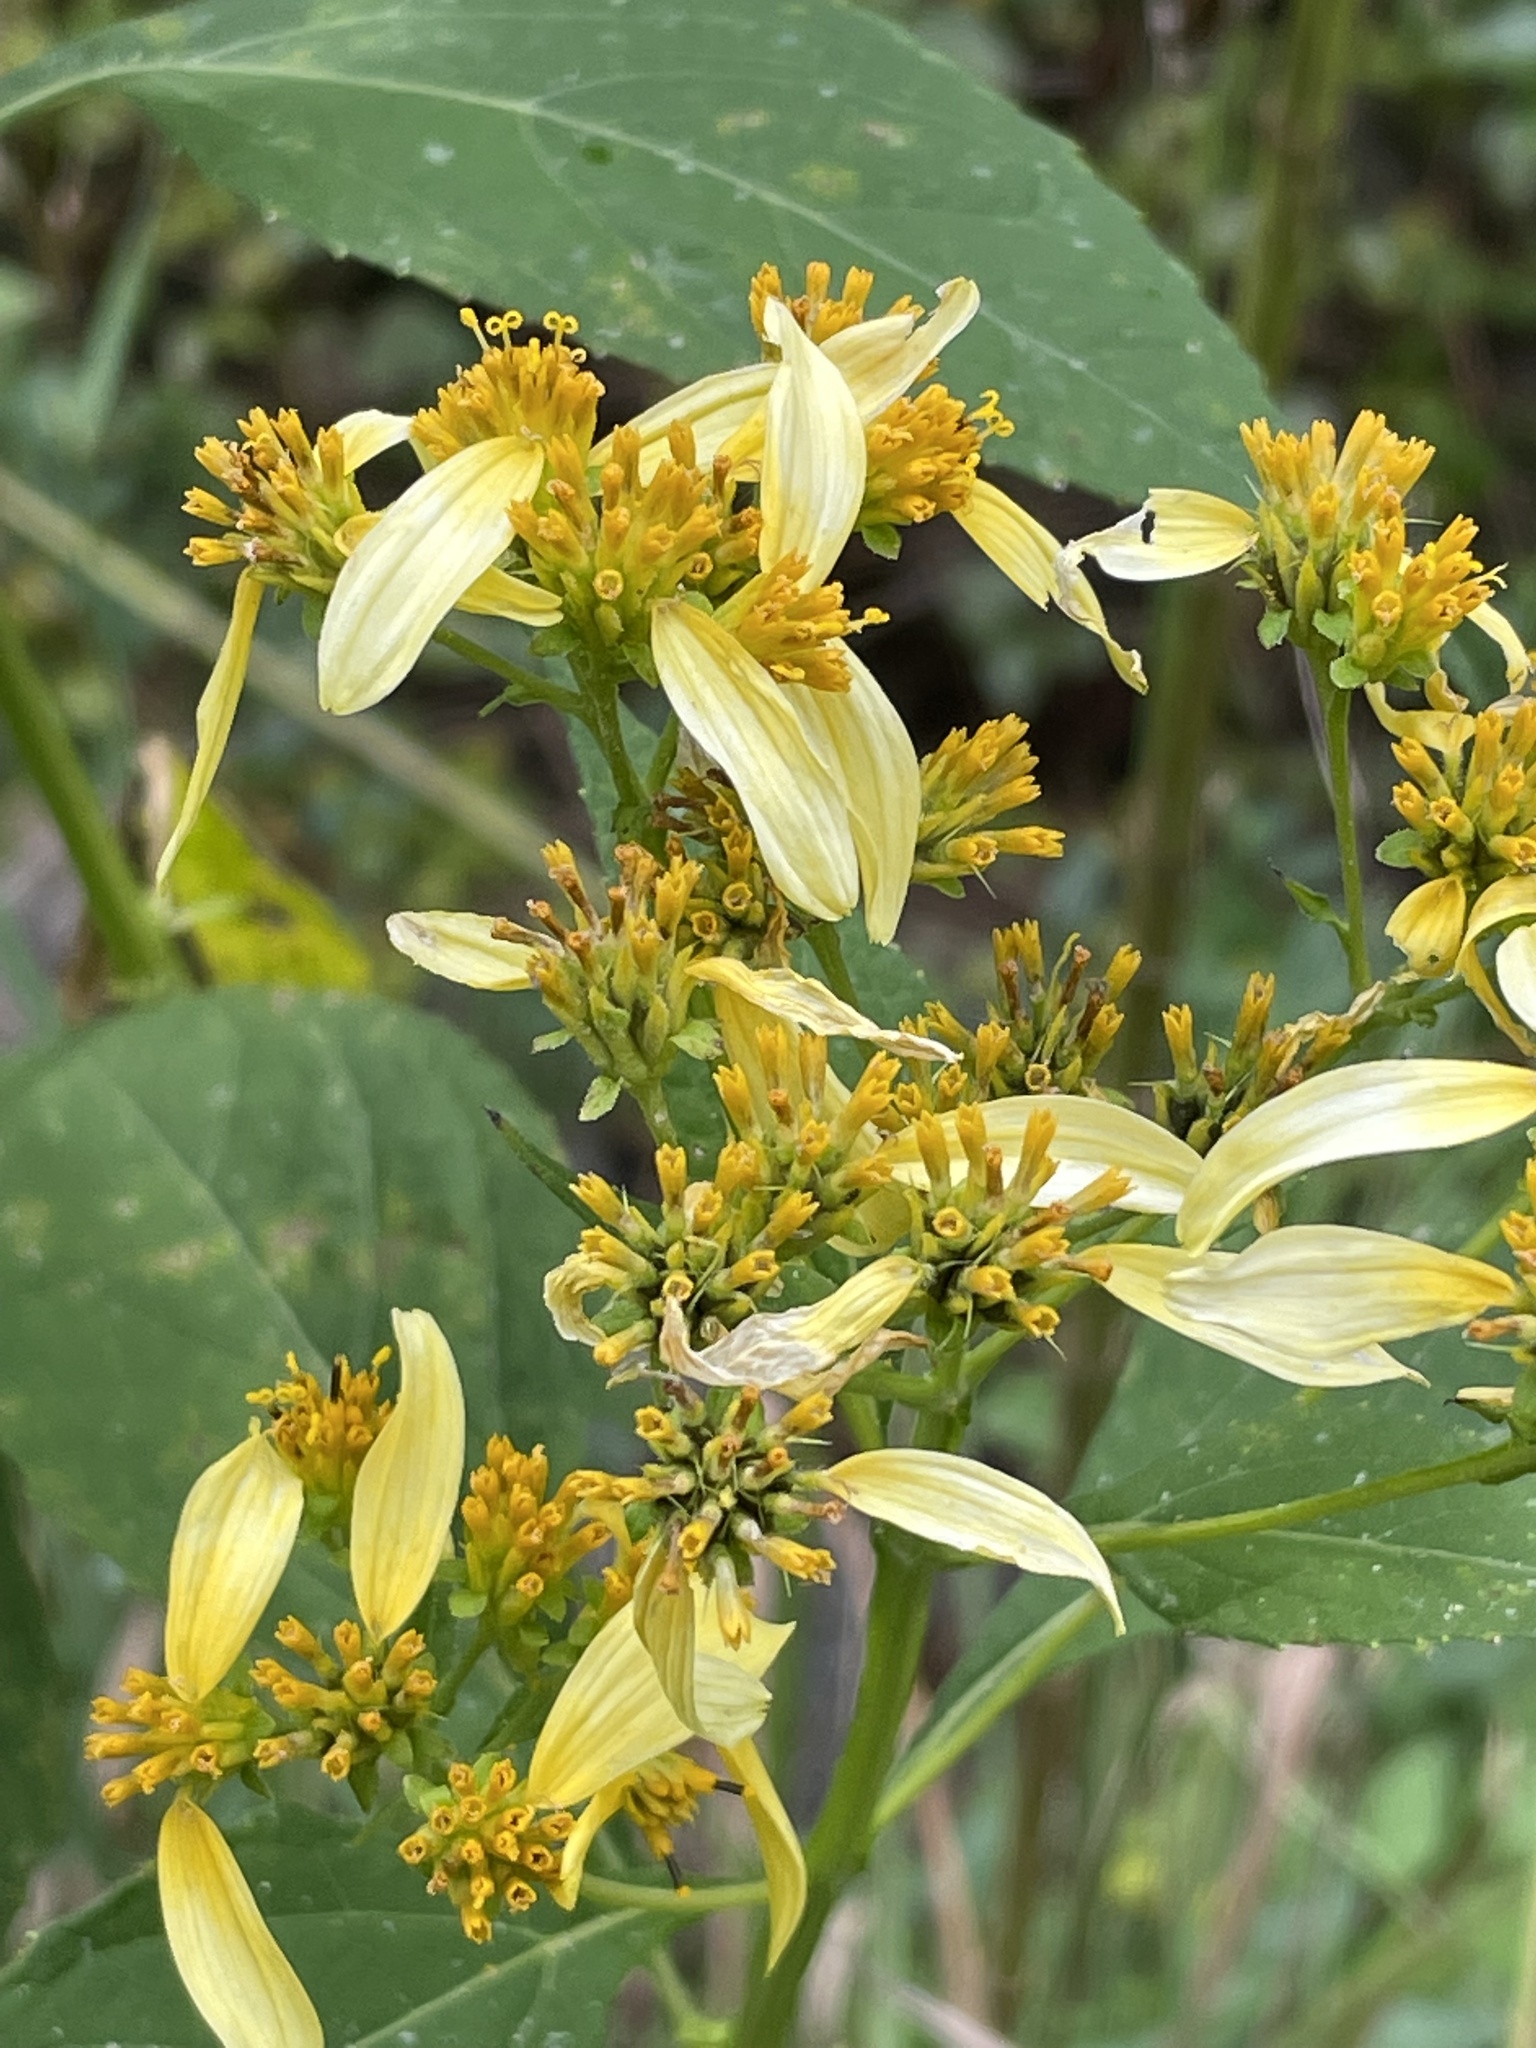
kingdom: Plantae
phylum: Tracheophyta
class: Magnoliopsida
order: Asterales
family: Asteraceae
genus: Verbesina
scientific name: Verbesina occidentalis
